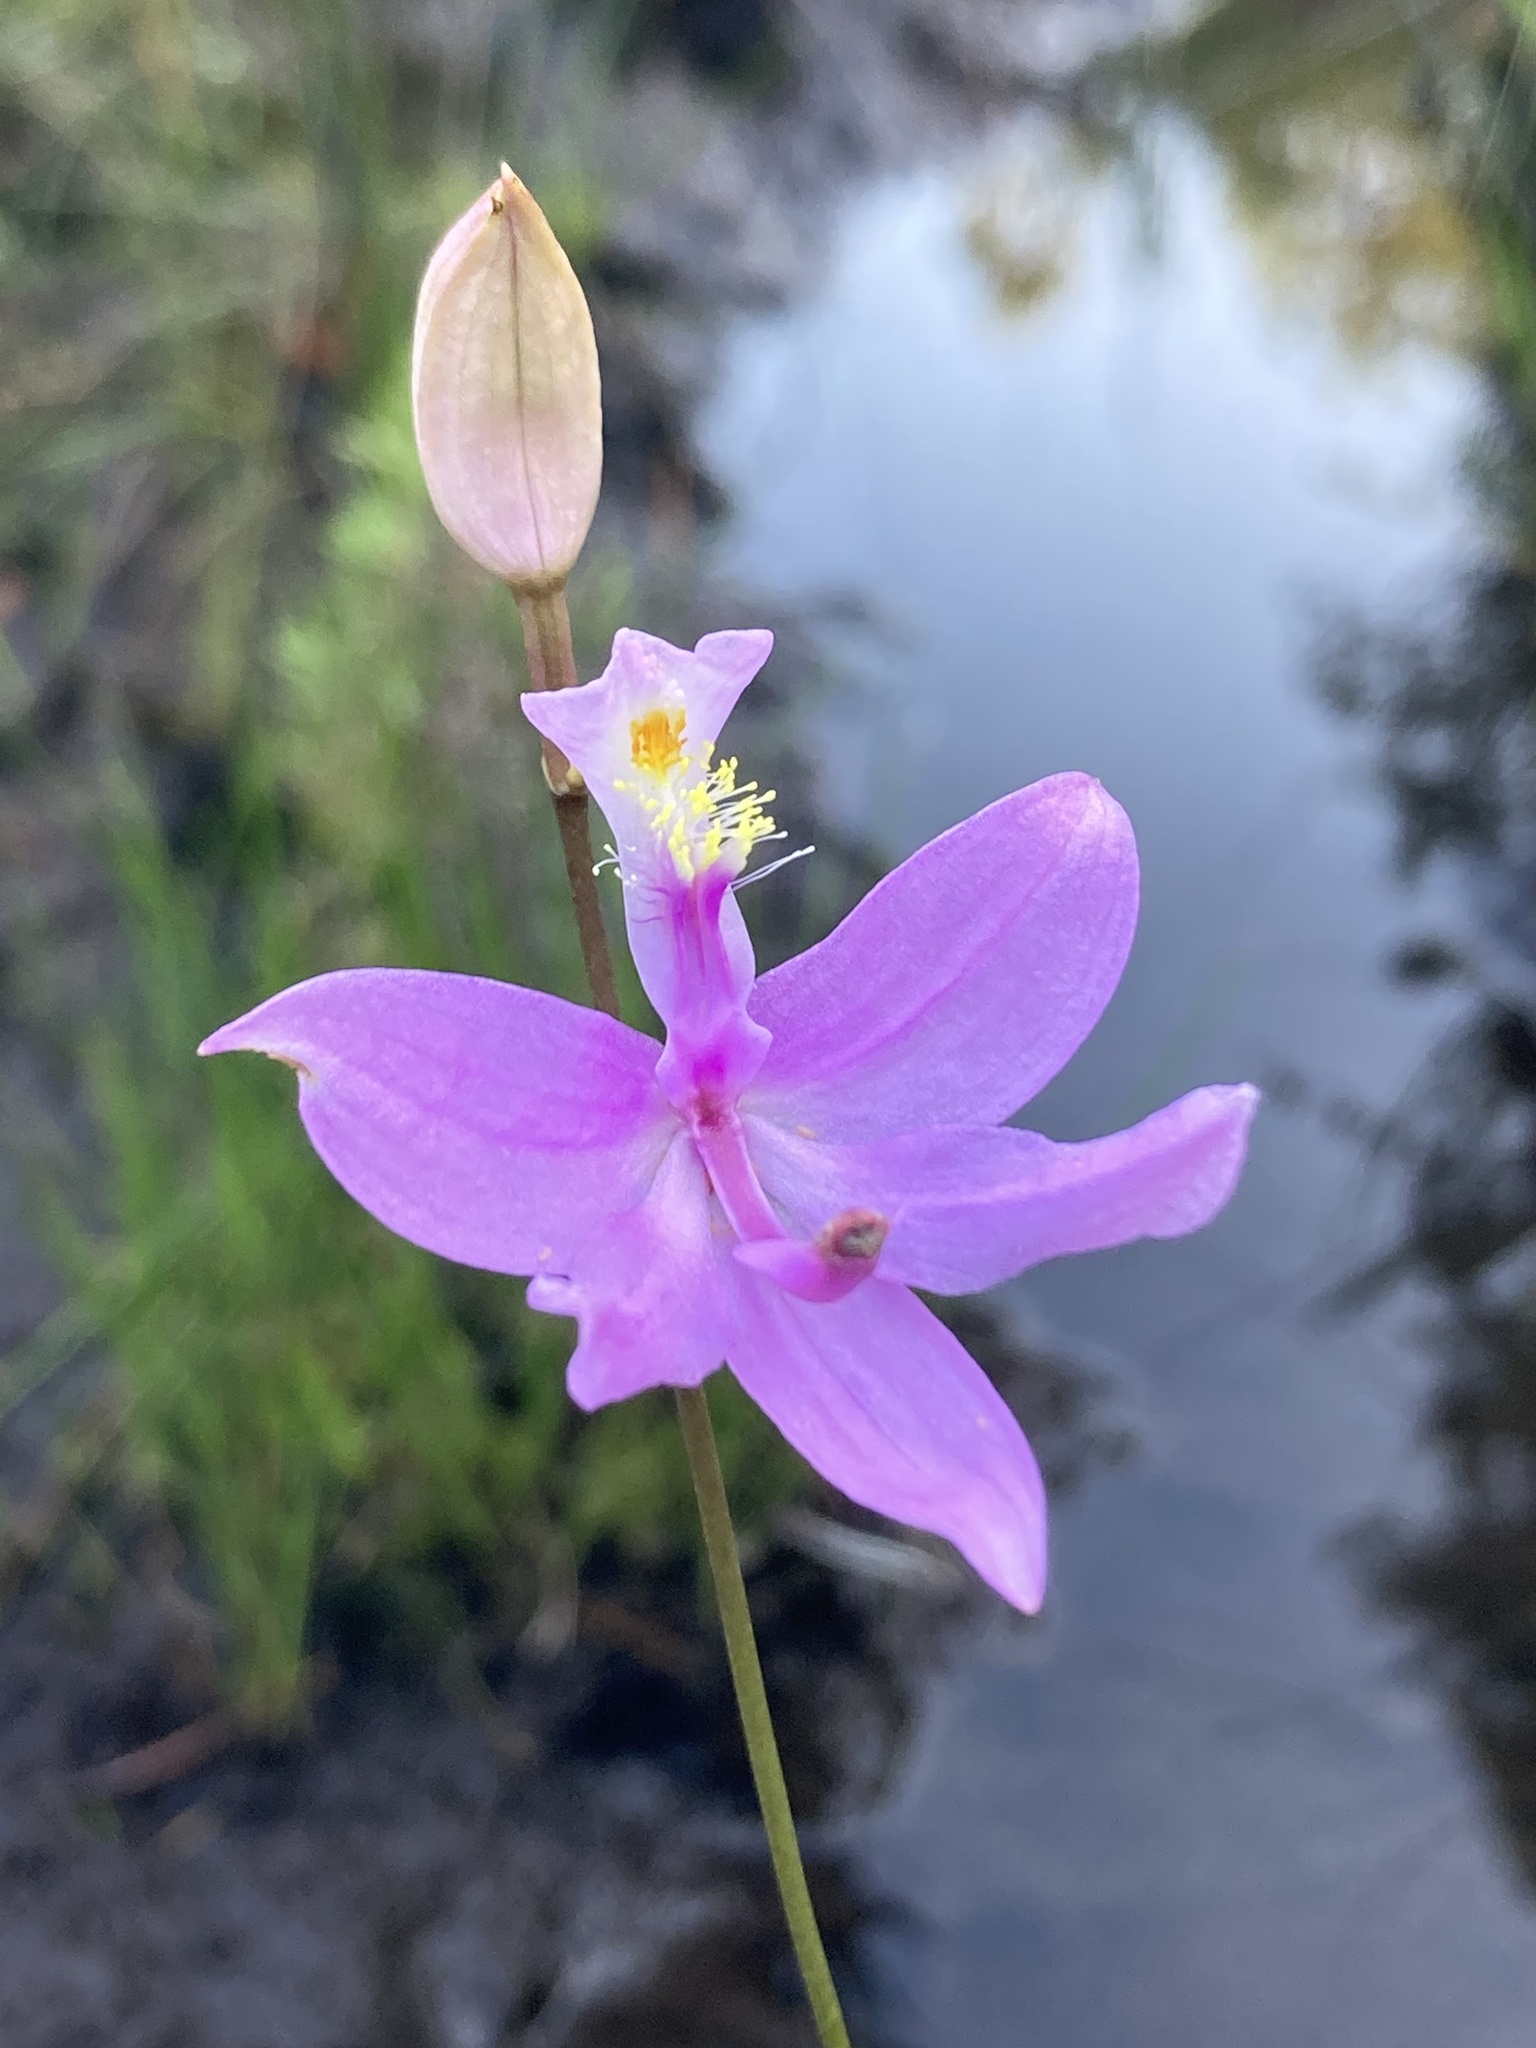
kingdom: Plantae
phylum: Tracheophyta
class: Liliopsida
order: Asparagales
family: Orchidaceae
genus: Calopogon
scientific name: Calopogon tuberosus
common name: Grass-pink
